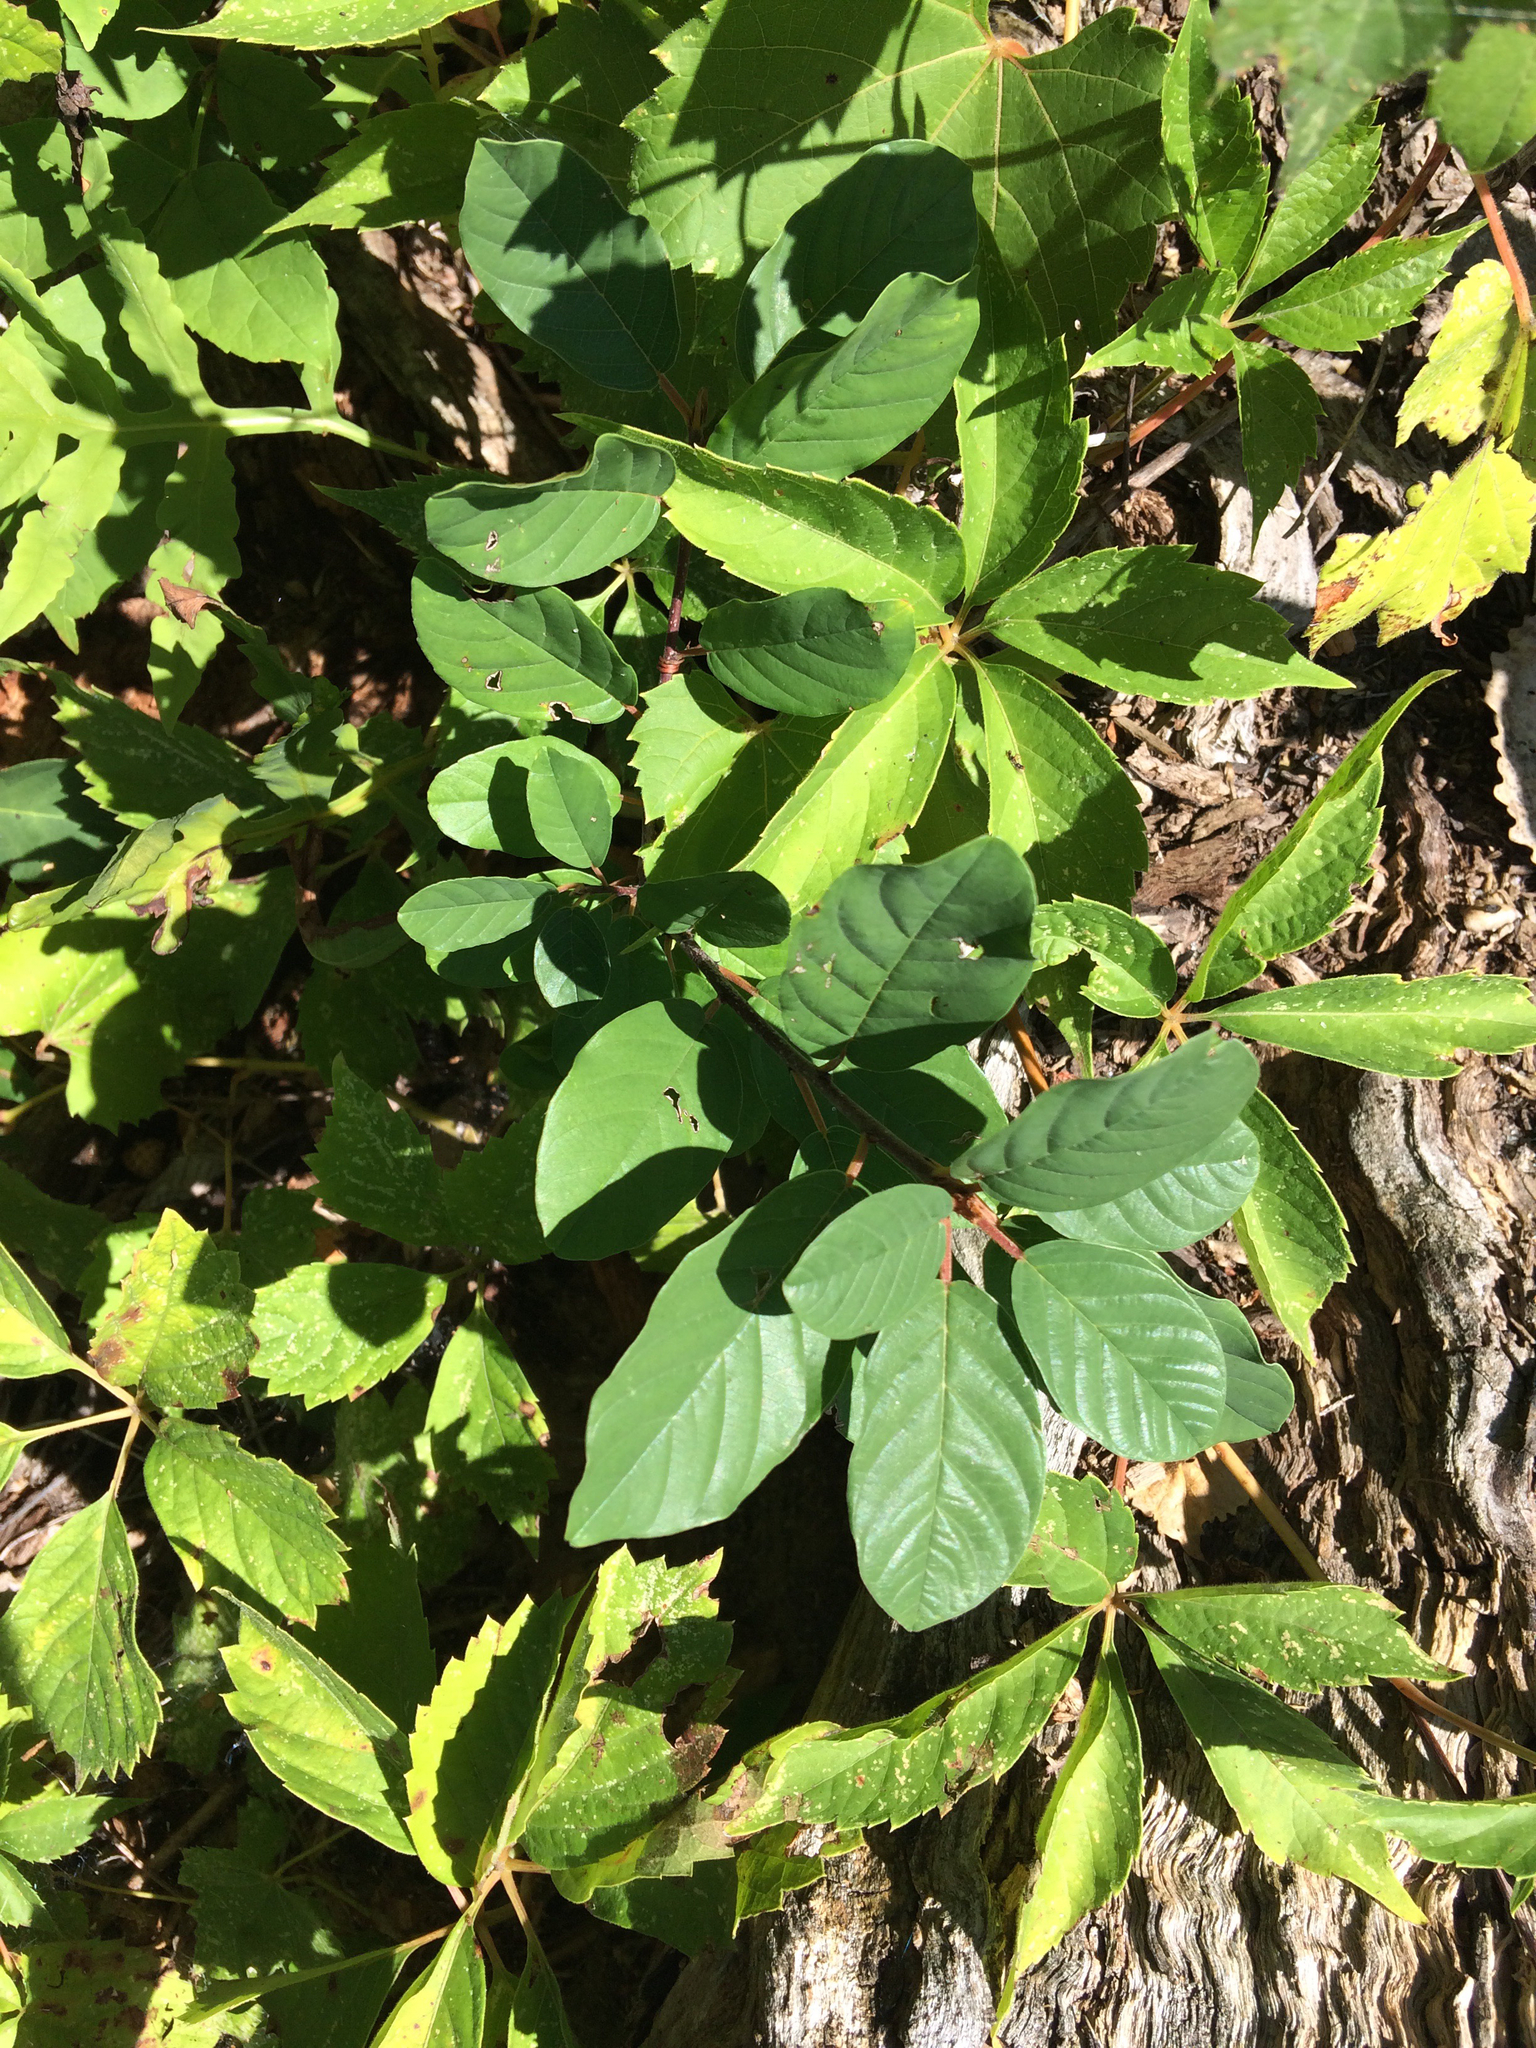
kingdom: Plantae
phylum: Tracheophyta
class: Magnoliopsida
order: Rosales
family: Rhamnaceae
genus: Frangula
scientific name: Frangula alnus
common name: Alder buckthorn
